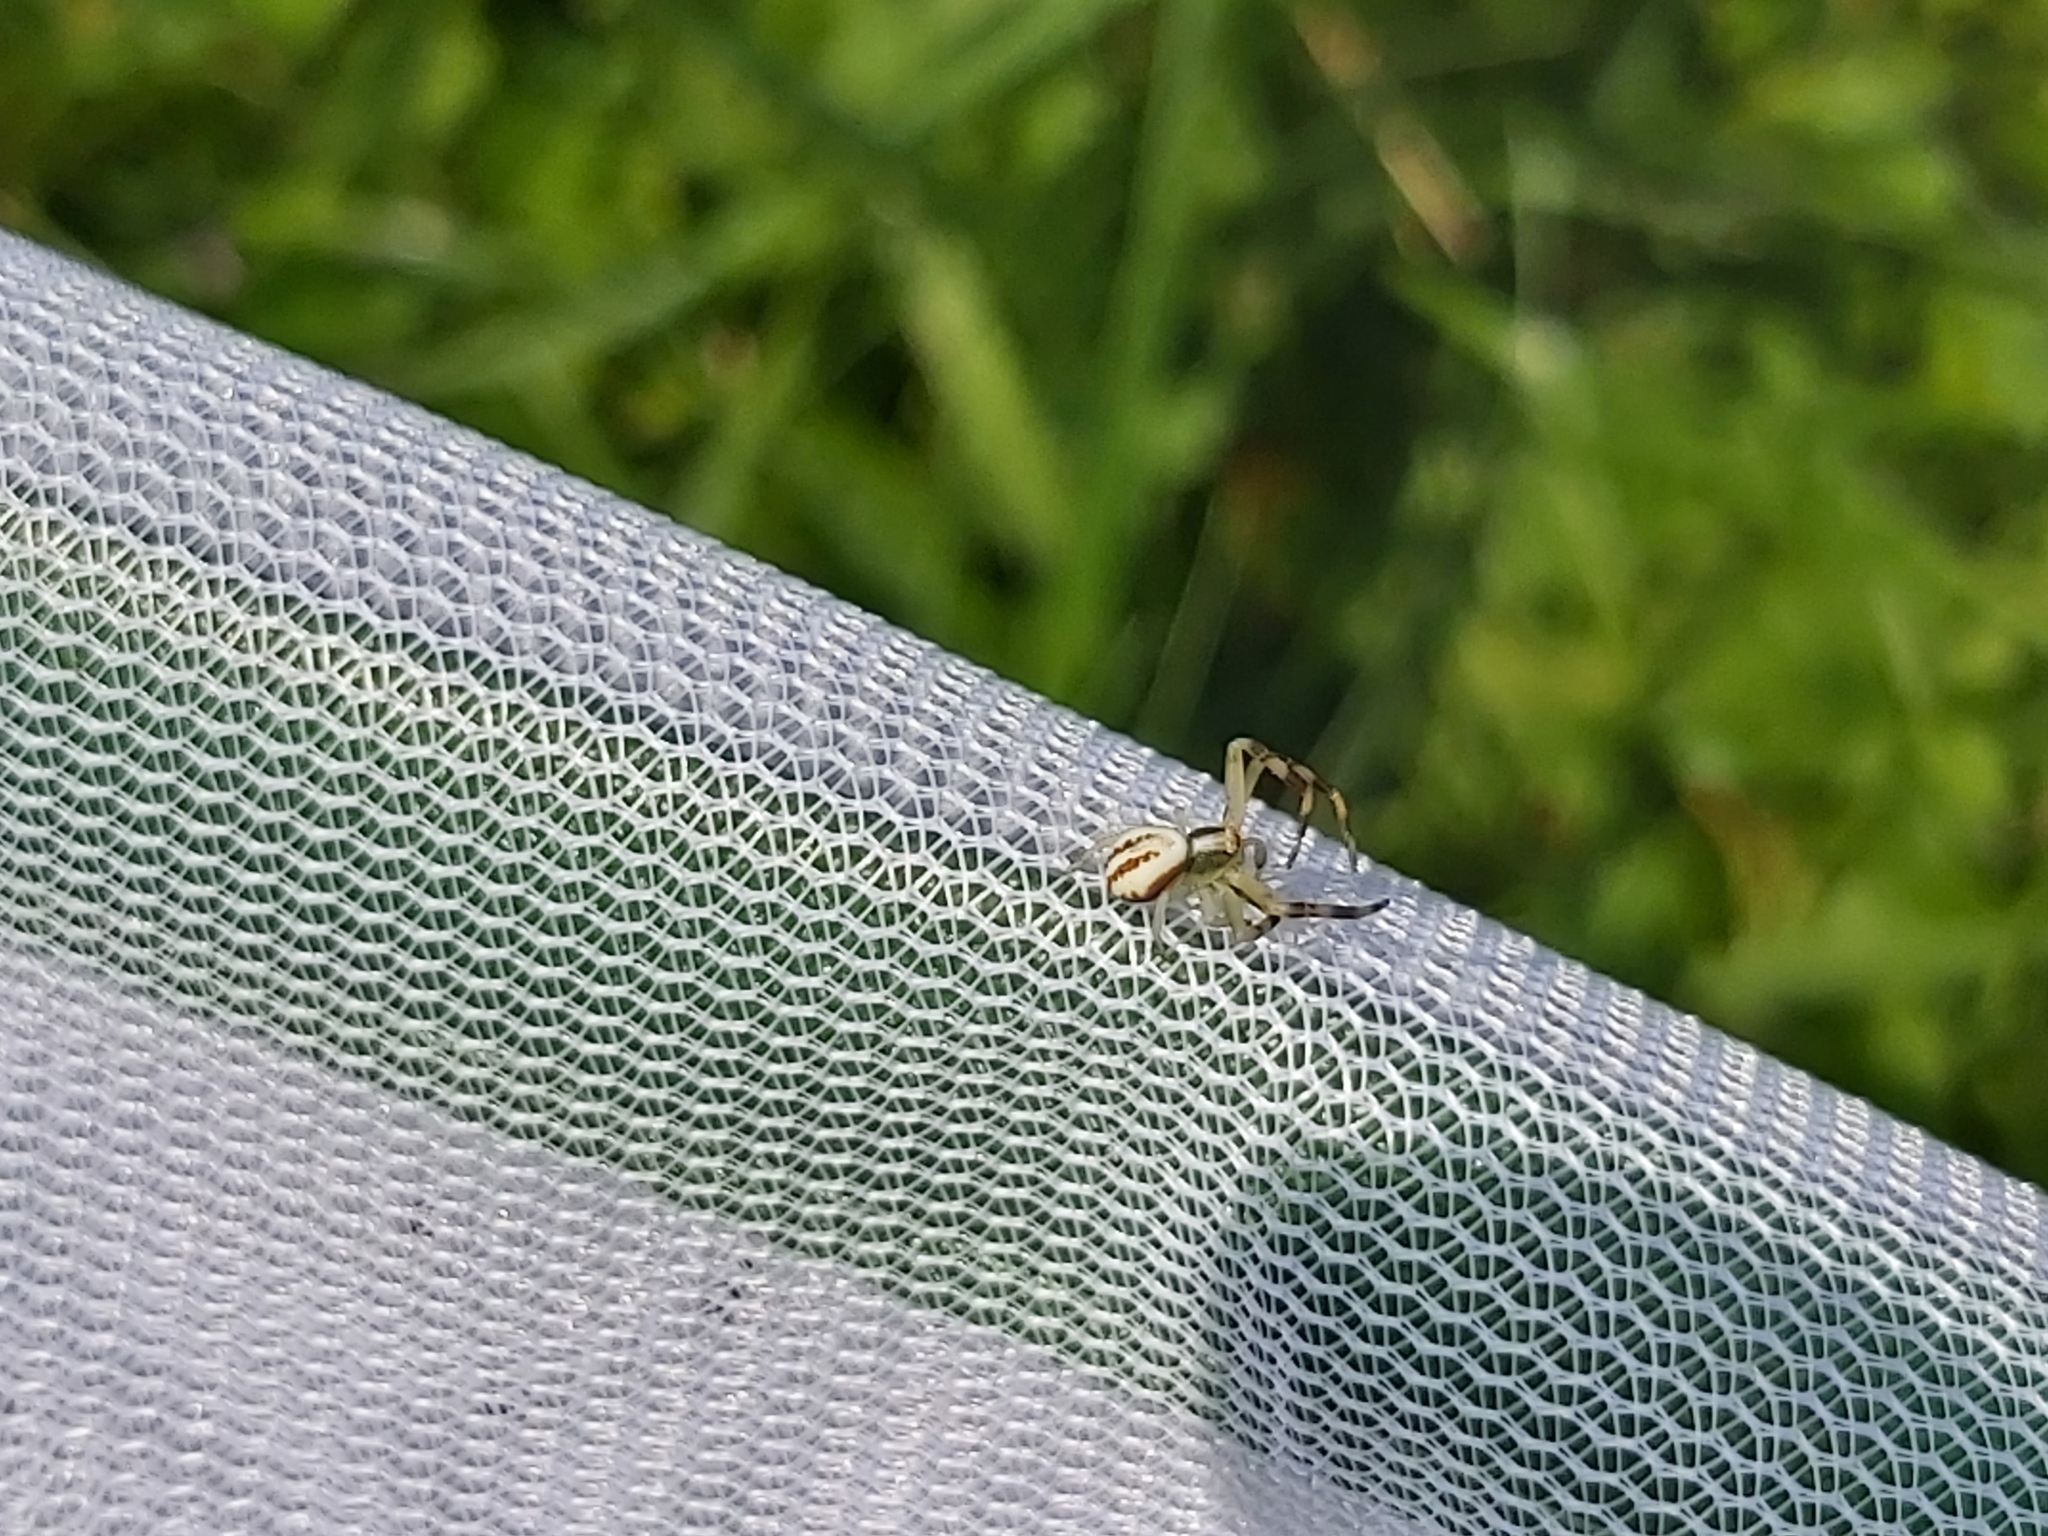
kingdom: Animalia
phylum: Arthropoda
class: Arachnida
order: Araneae
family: Thomisidae
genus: Misumena
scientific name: Misumena vatia
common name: Goldenrod crab spider
